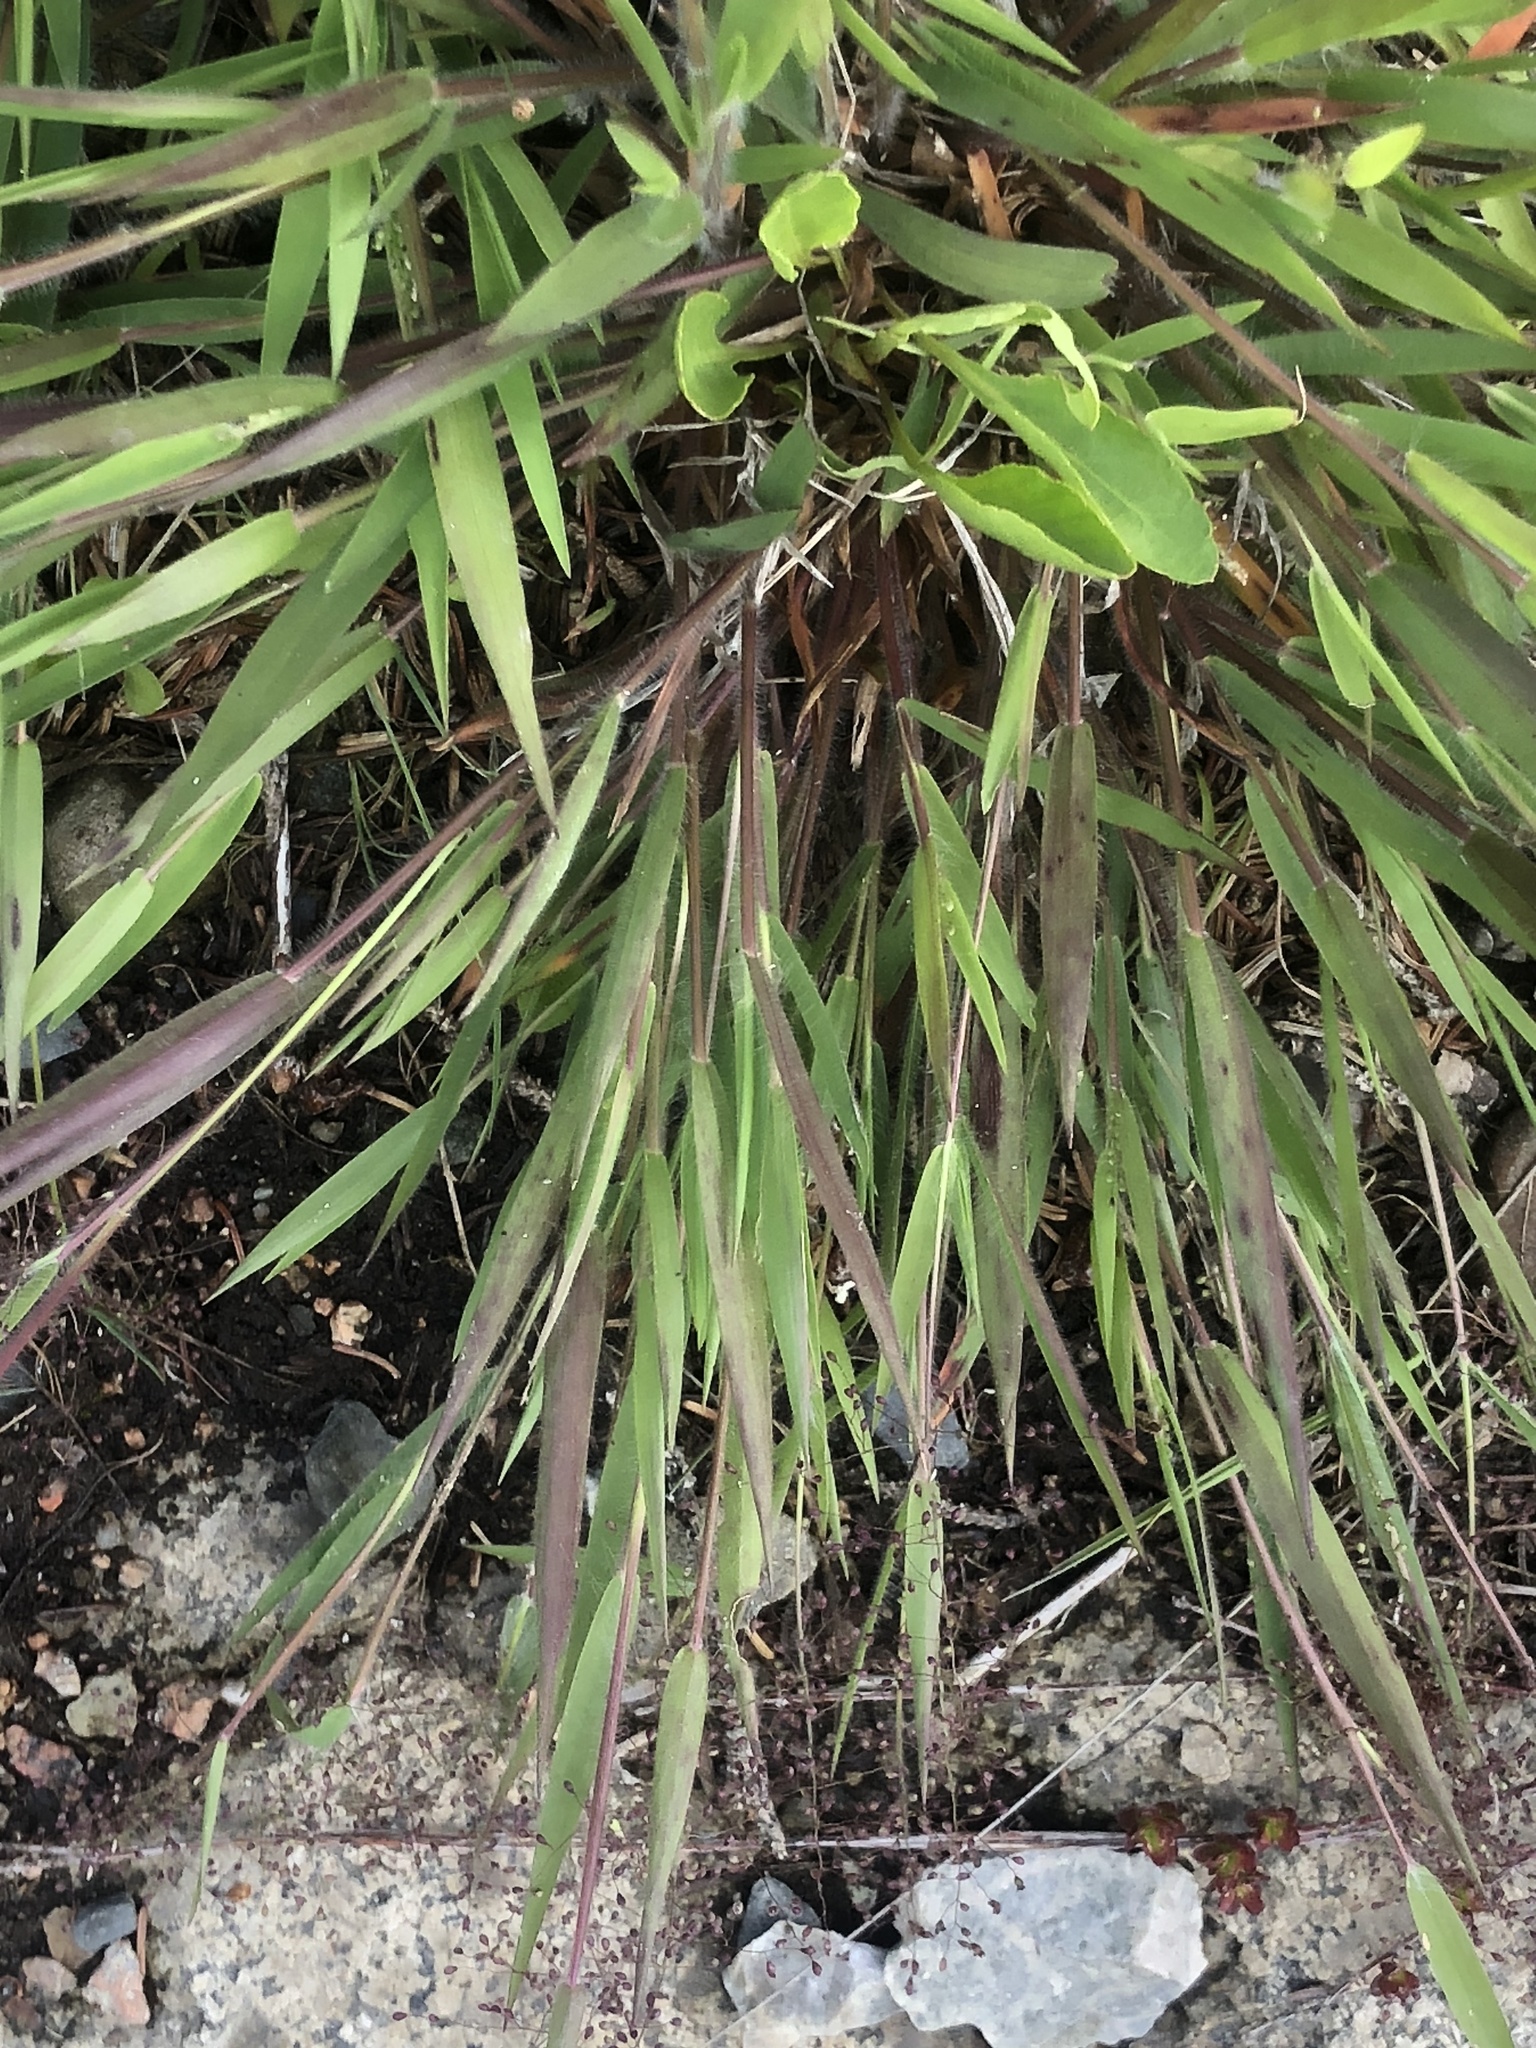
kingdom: Plantae
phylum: Tracheophyta
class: Liliopsida
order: Poales
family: Poaceae
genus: Dichanthelium
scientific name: Dichanthelium implicatum
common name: Slender-stemmed panicgrass
